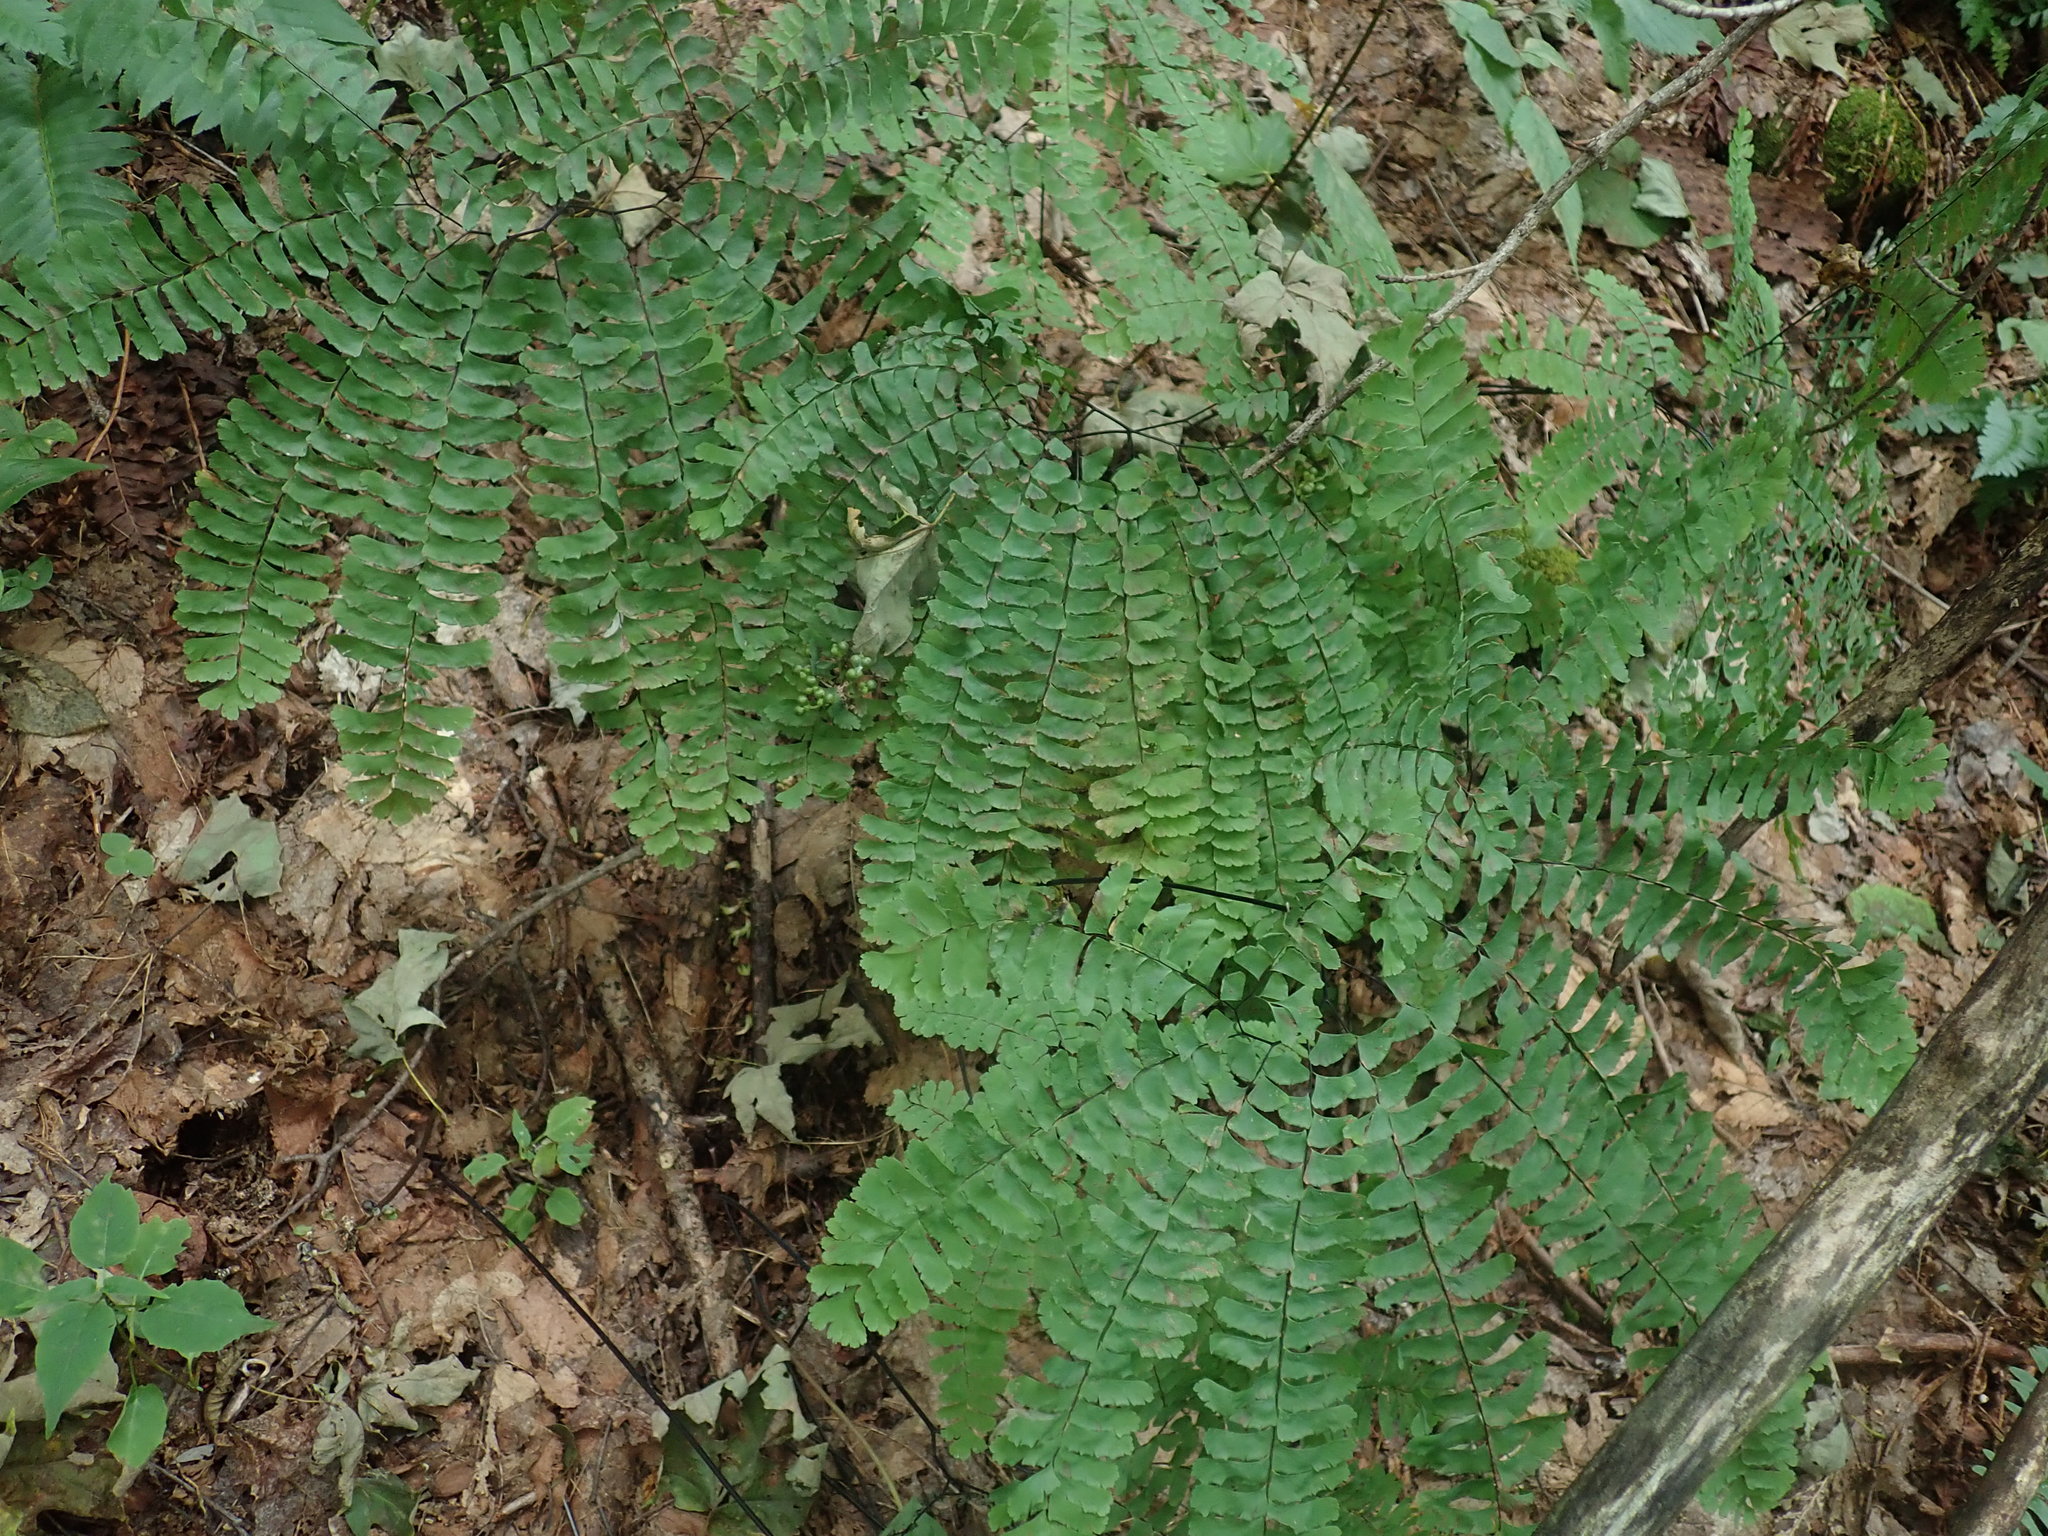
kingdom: Plantae
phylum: Tracheophyta
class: Polypodiopsida
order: Polypodiales
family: Pteridaceae
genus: Adiantum
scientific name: Adiantum pedatum
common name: Five-finger fern
